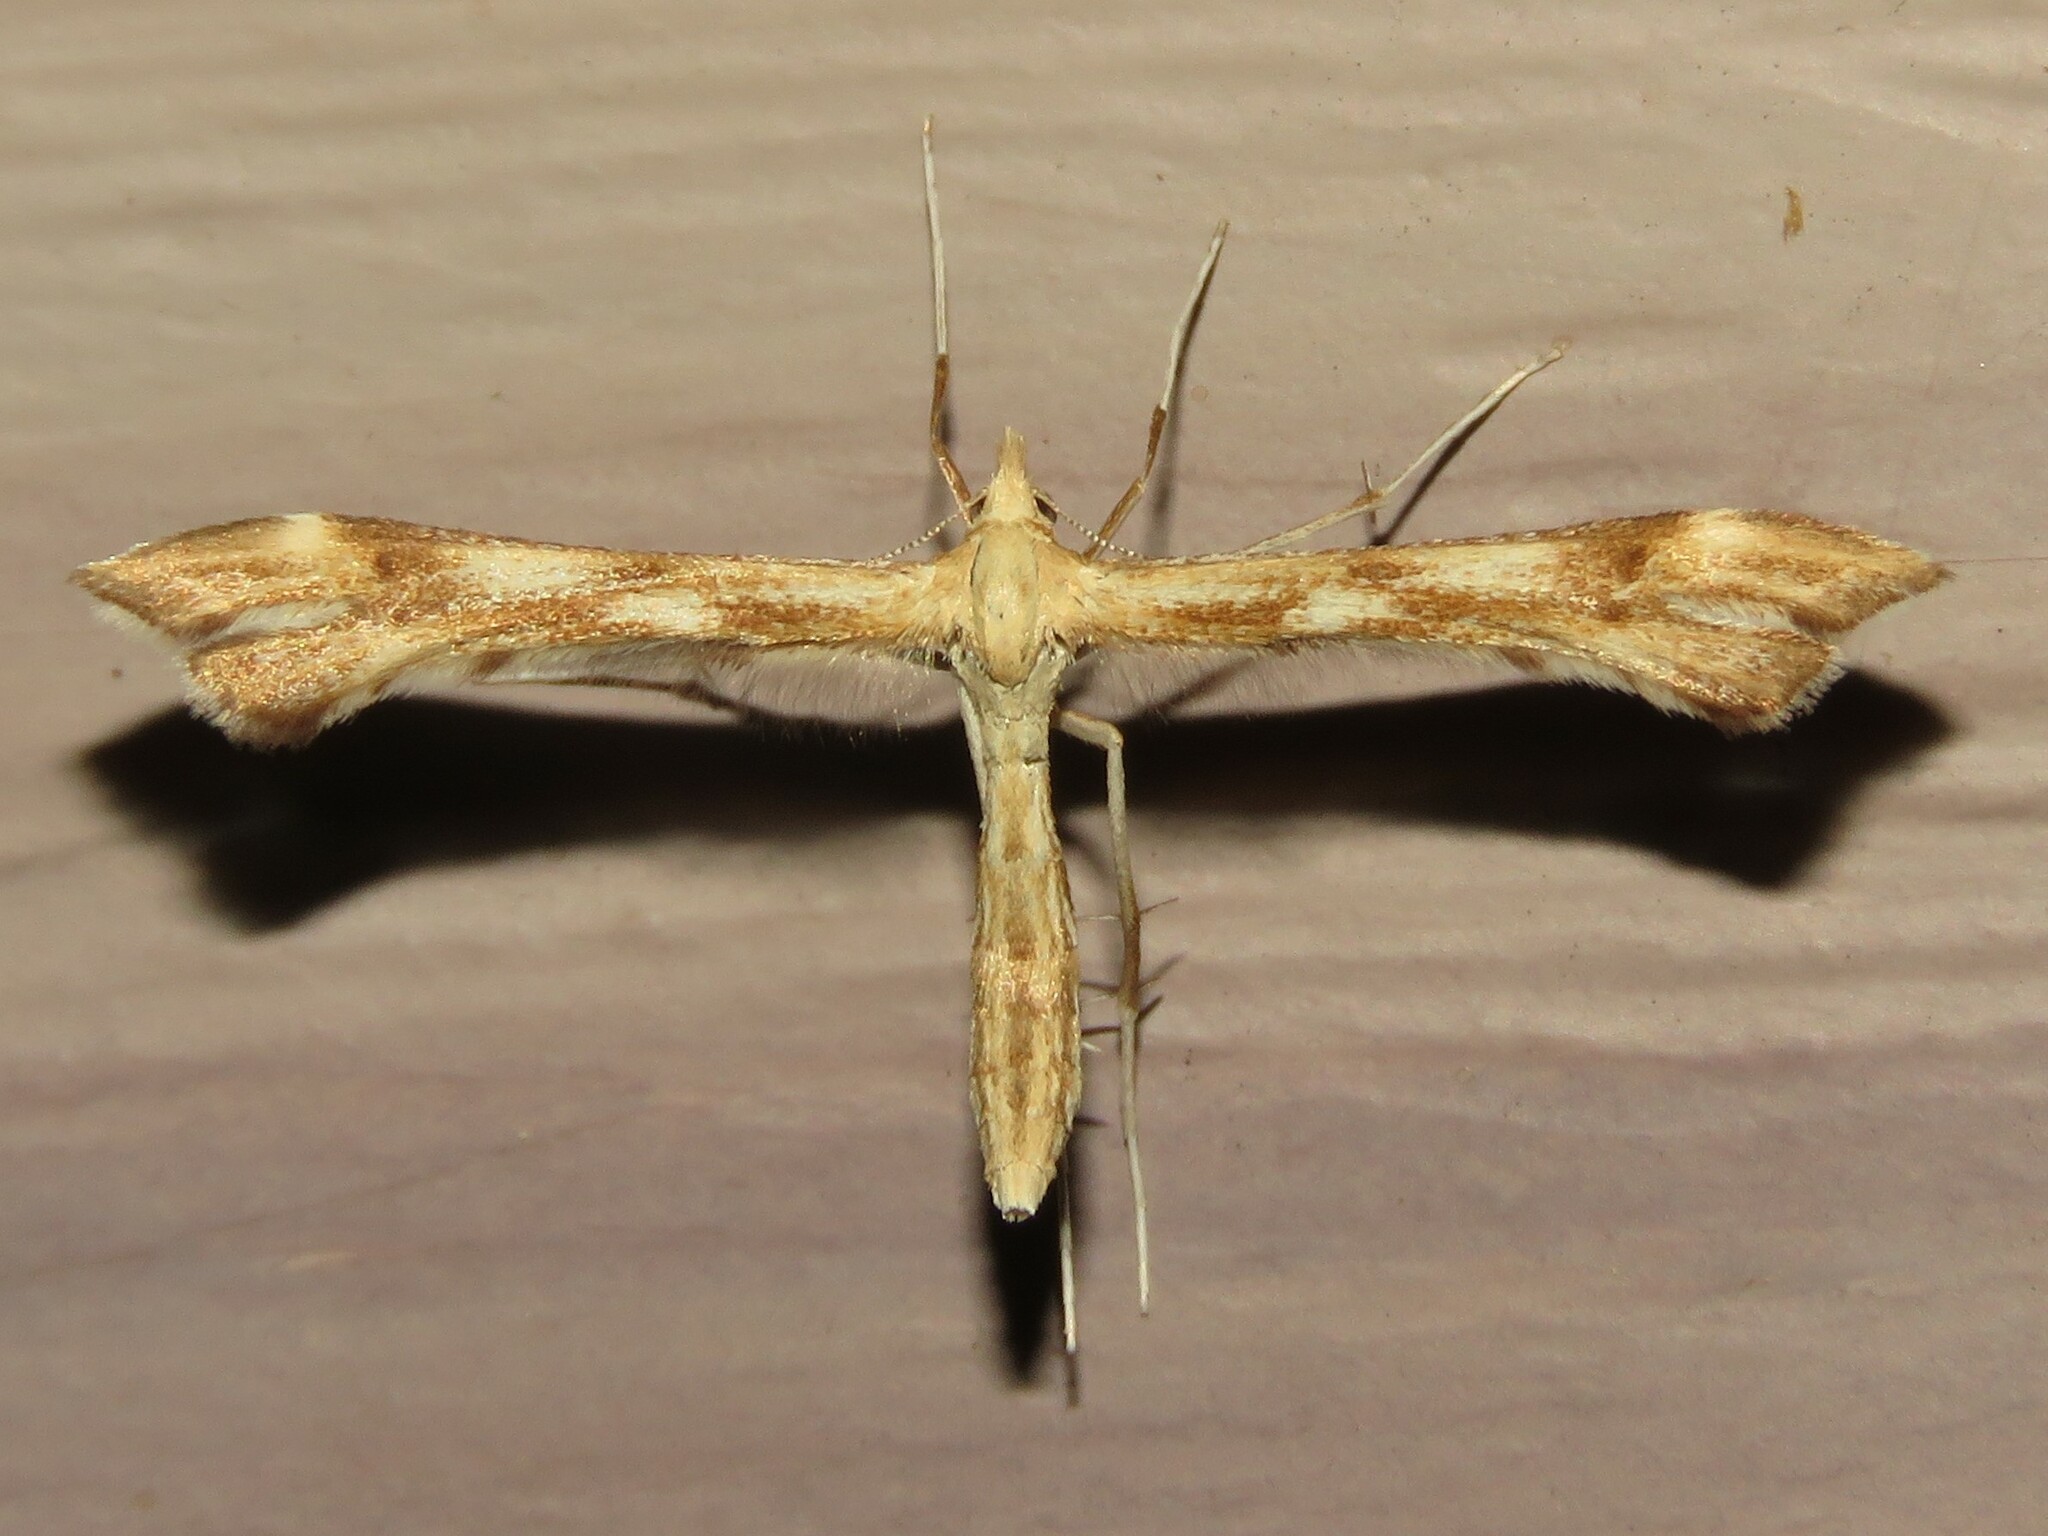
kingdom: Animalia
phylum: Arthropoda
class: Insecta
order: Lepidoptera
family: Pterophoridae
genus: Gillmeria
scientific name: Gillmeria pallidactyla
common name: Yarrow plume
